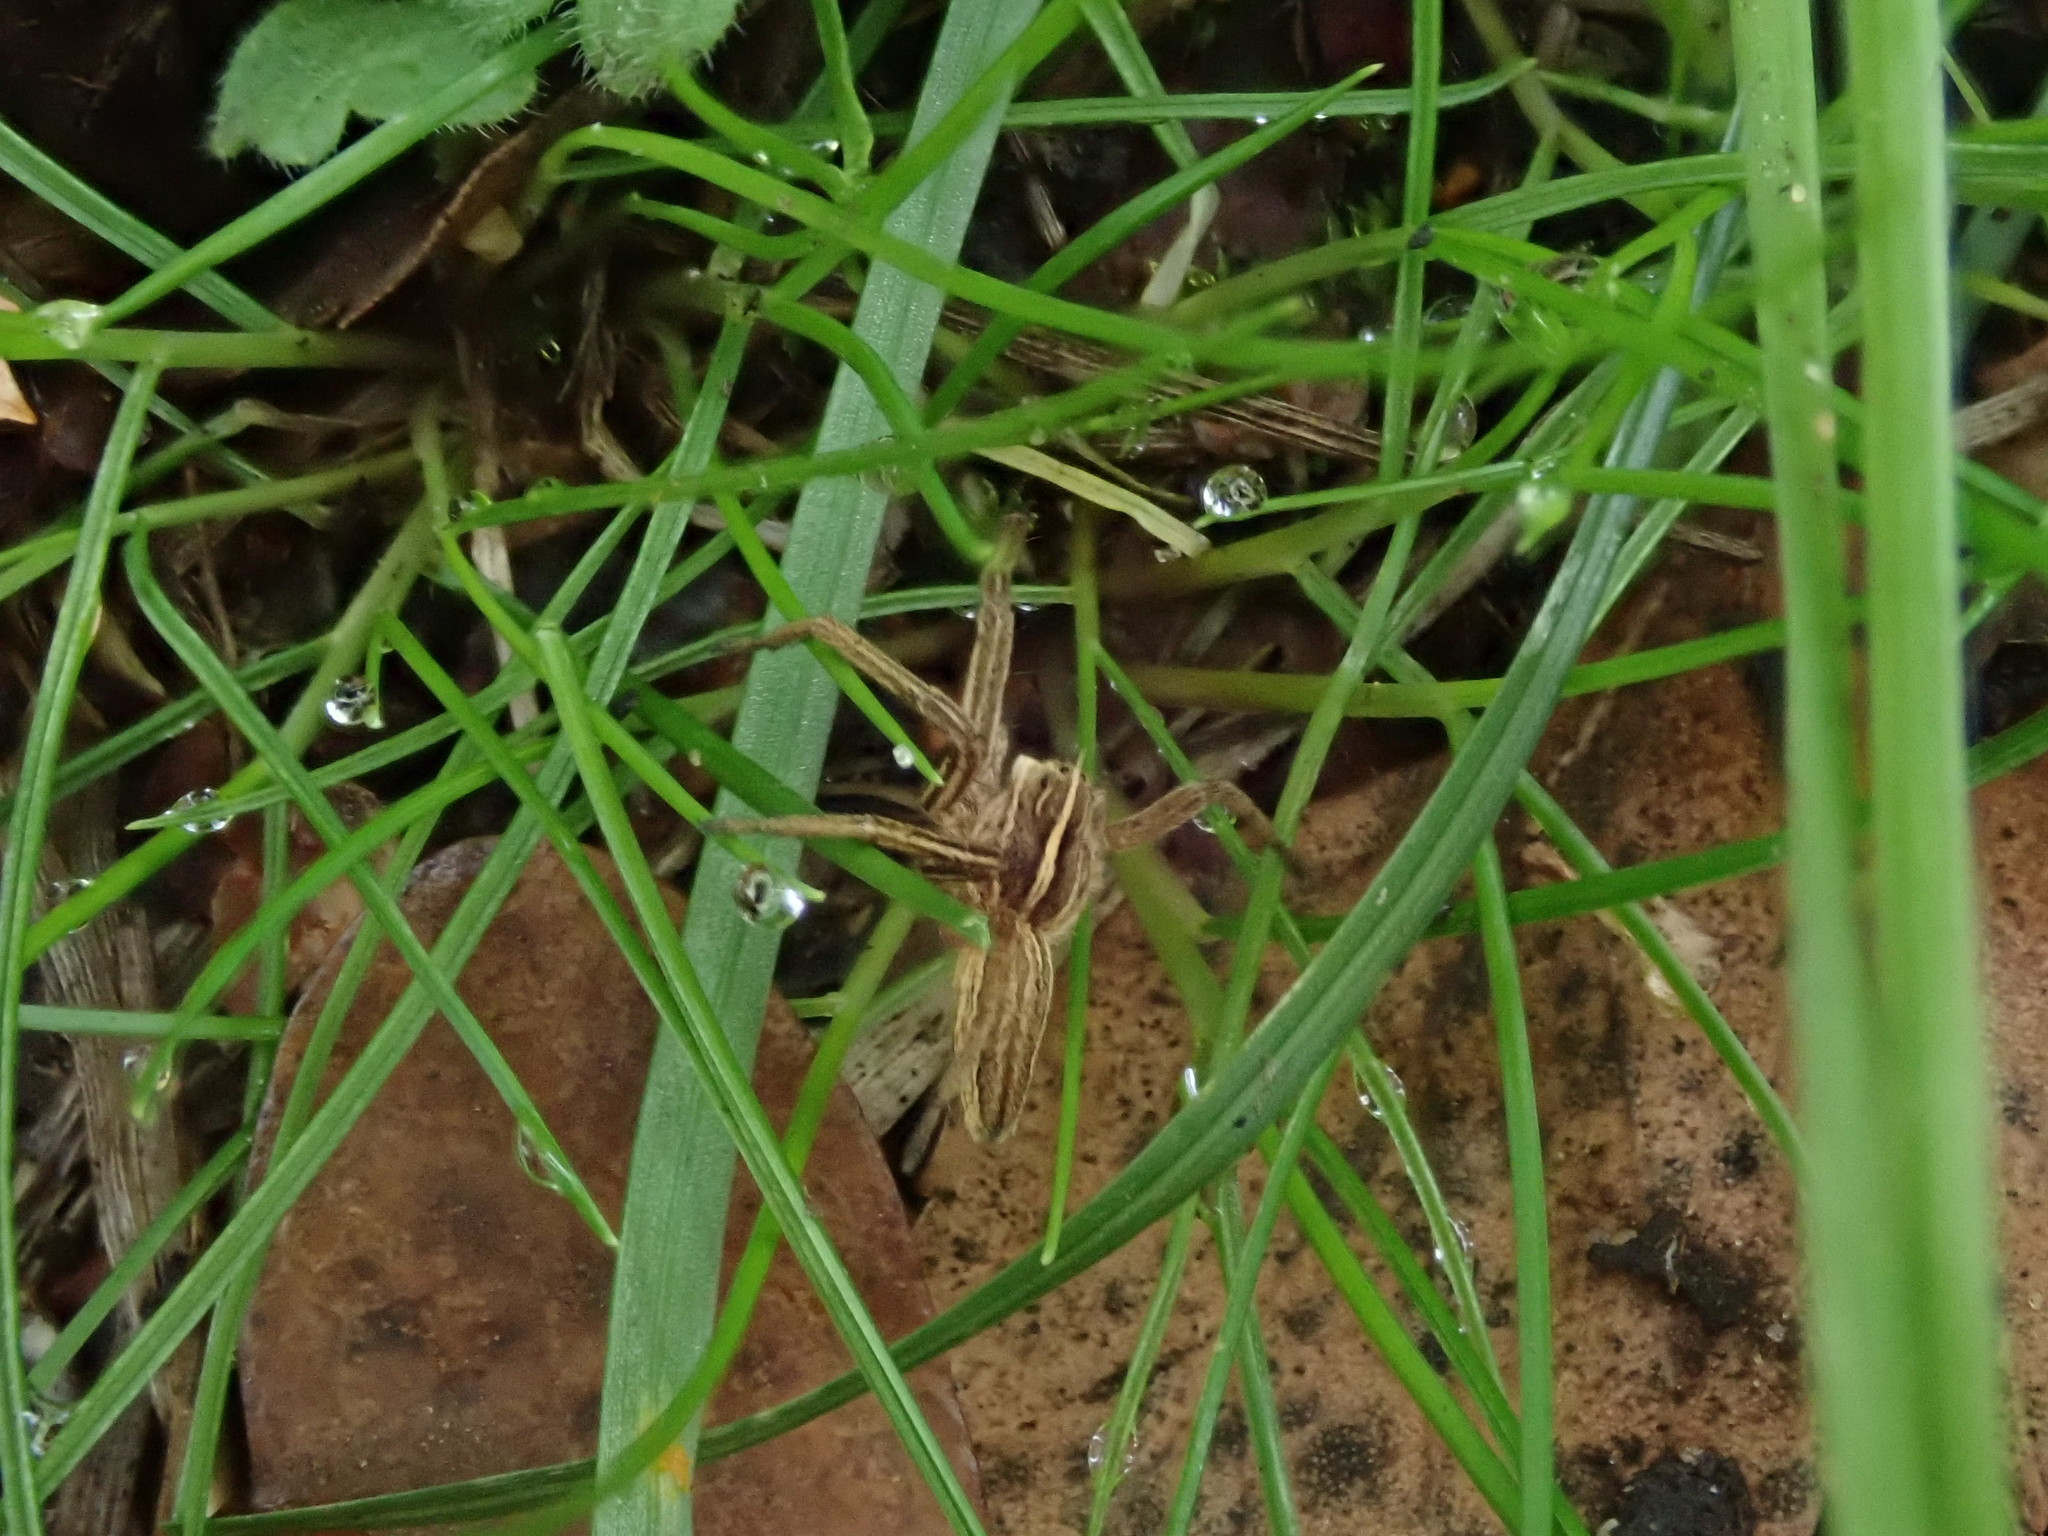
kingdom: Animalia
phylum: Arthropoda
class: Arachnida
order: Araneae
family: Pisauridae
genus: Pisaura
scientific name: Pisaura mirabilis
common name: Tent spider
